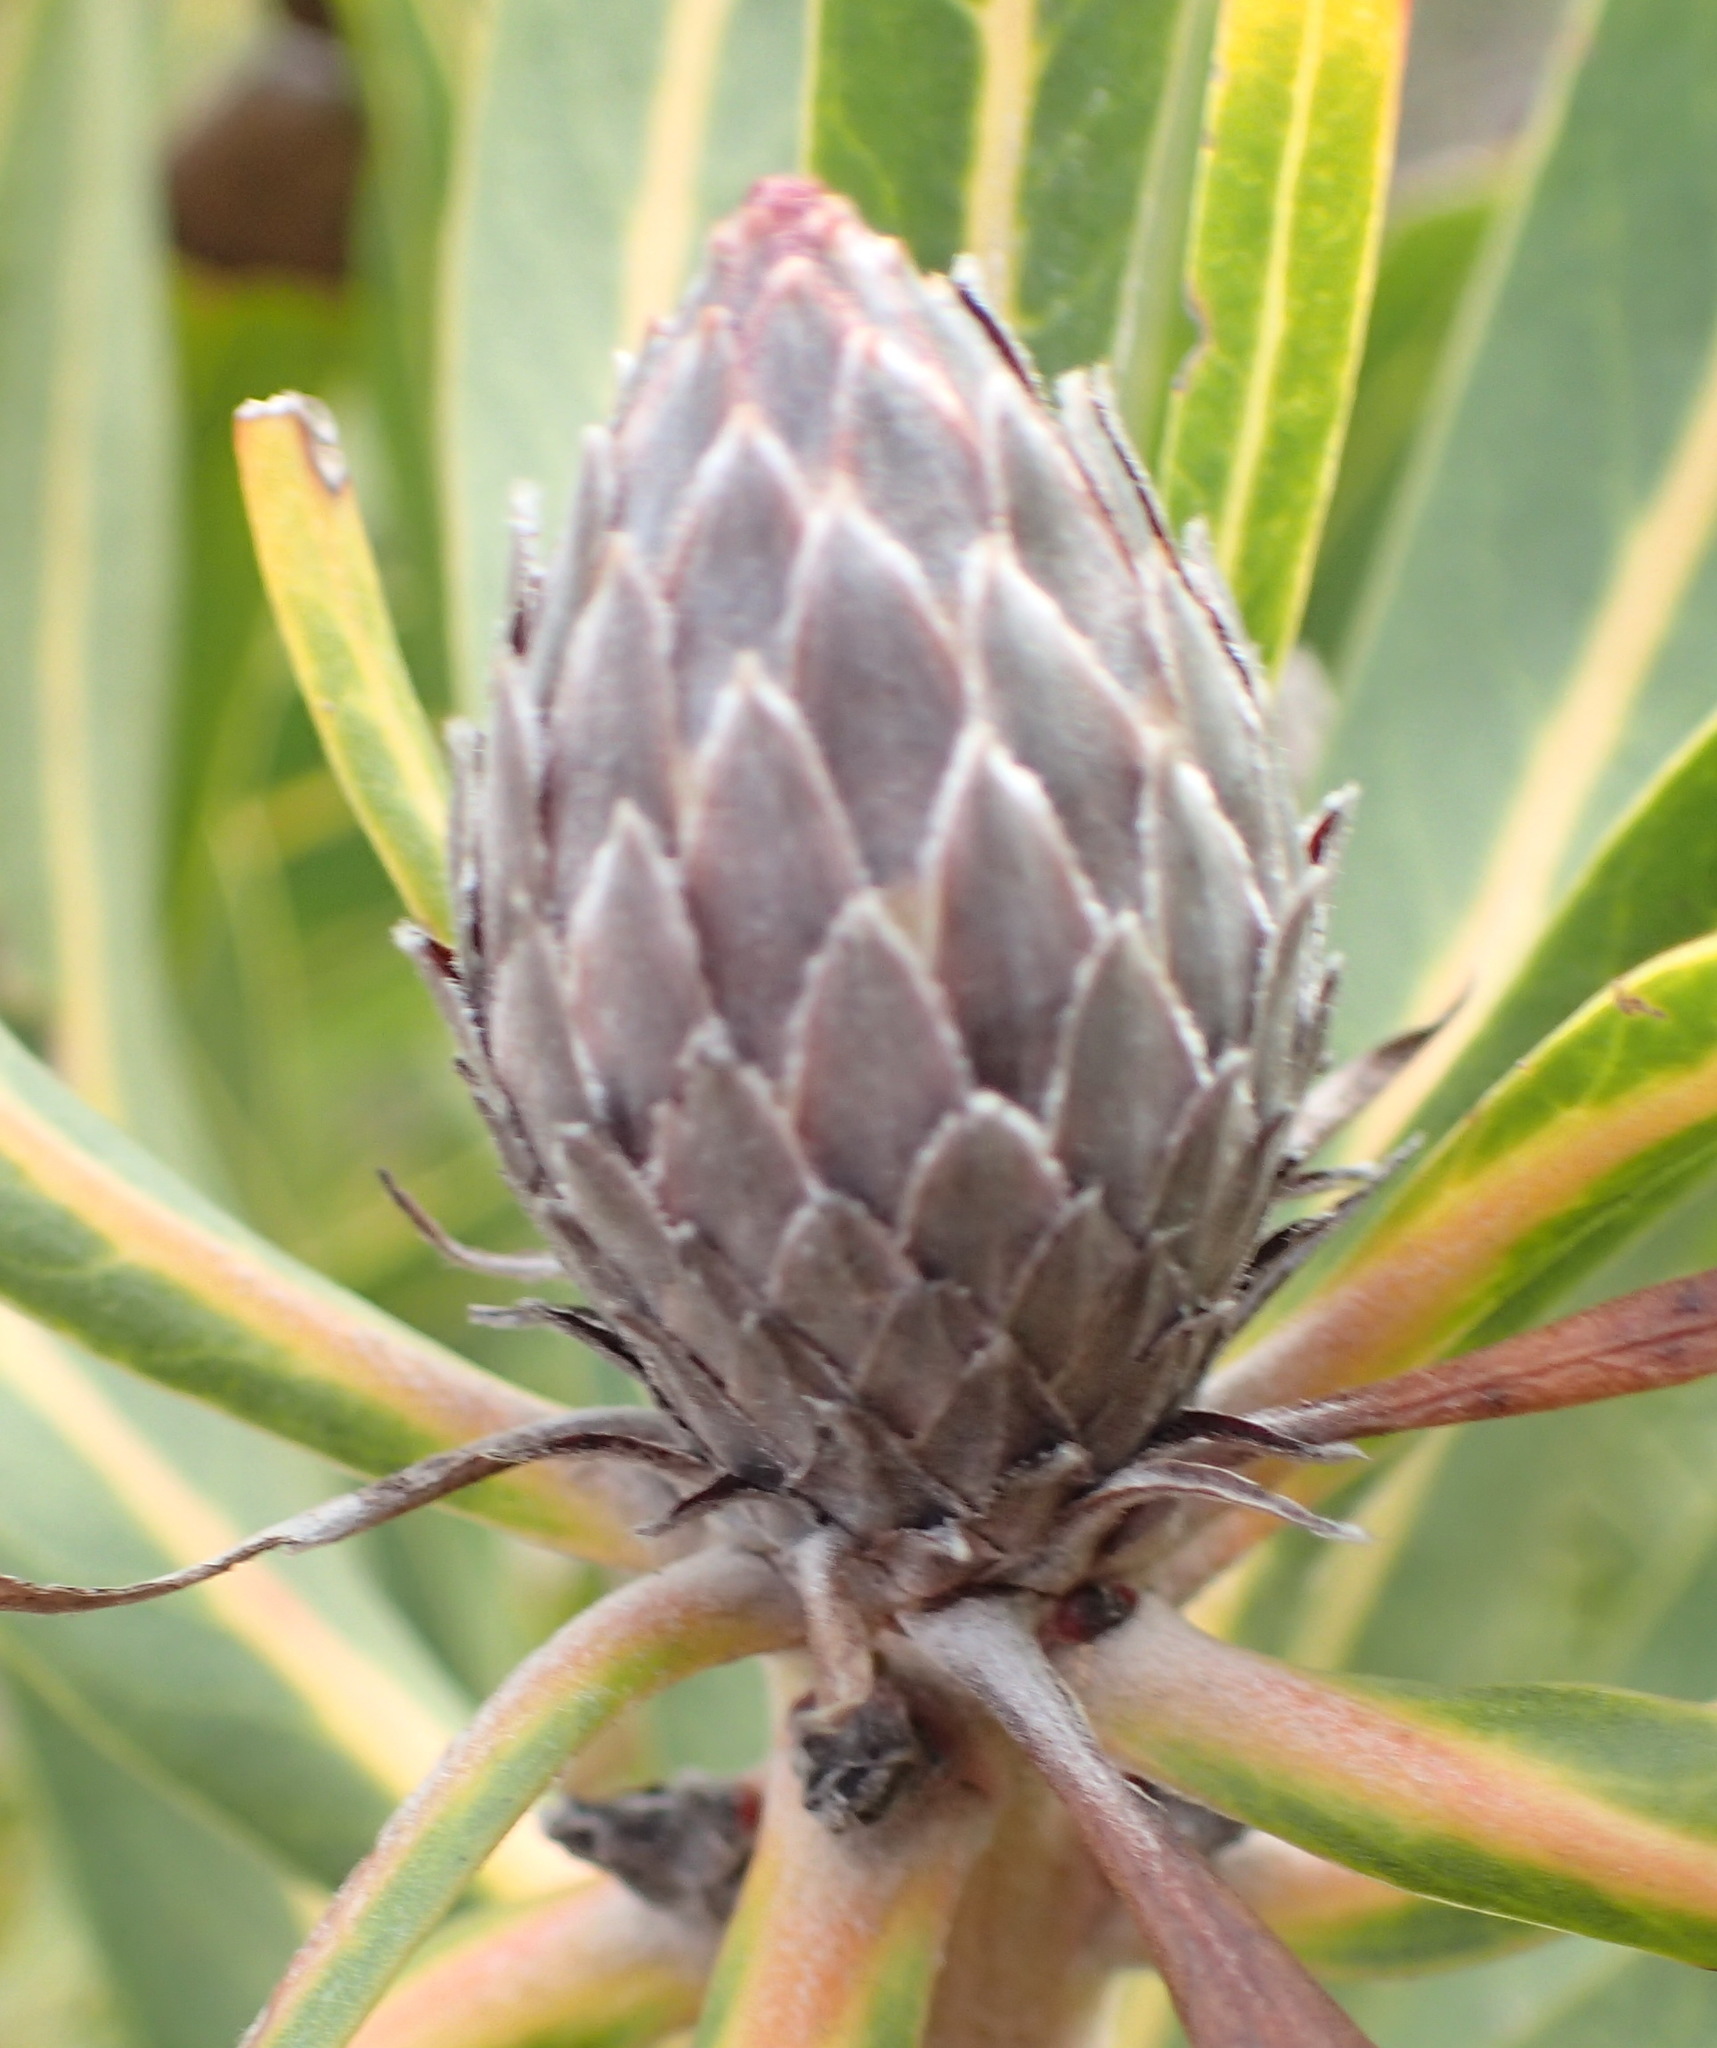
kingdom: Plantae
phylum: Tracheophyta
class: Magnoliopsida
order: Proteales
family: Proteaceae
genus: Protea
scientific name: Protea neriifolia
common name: Blue sugarbush
